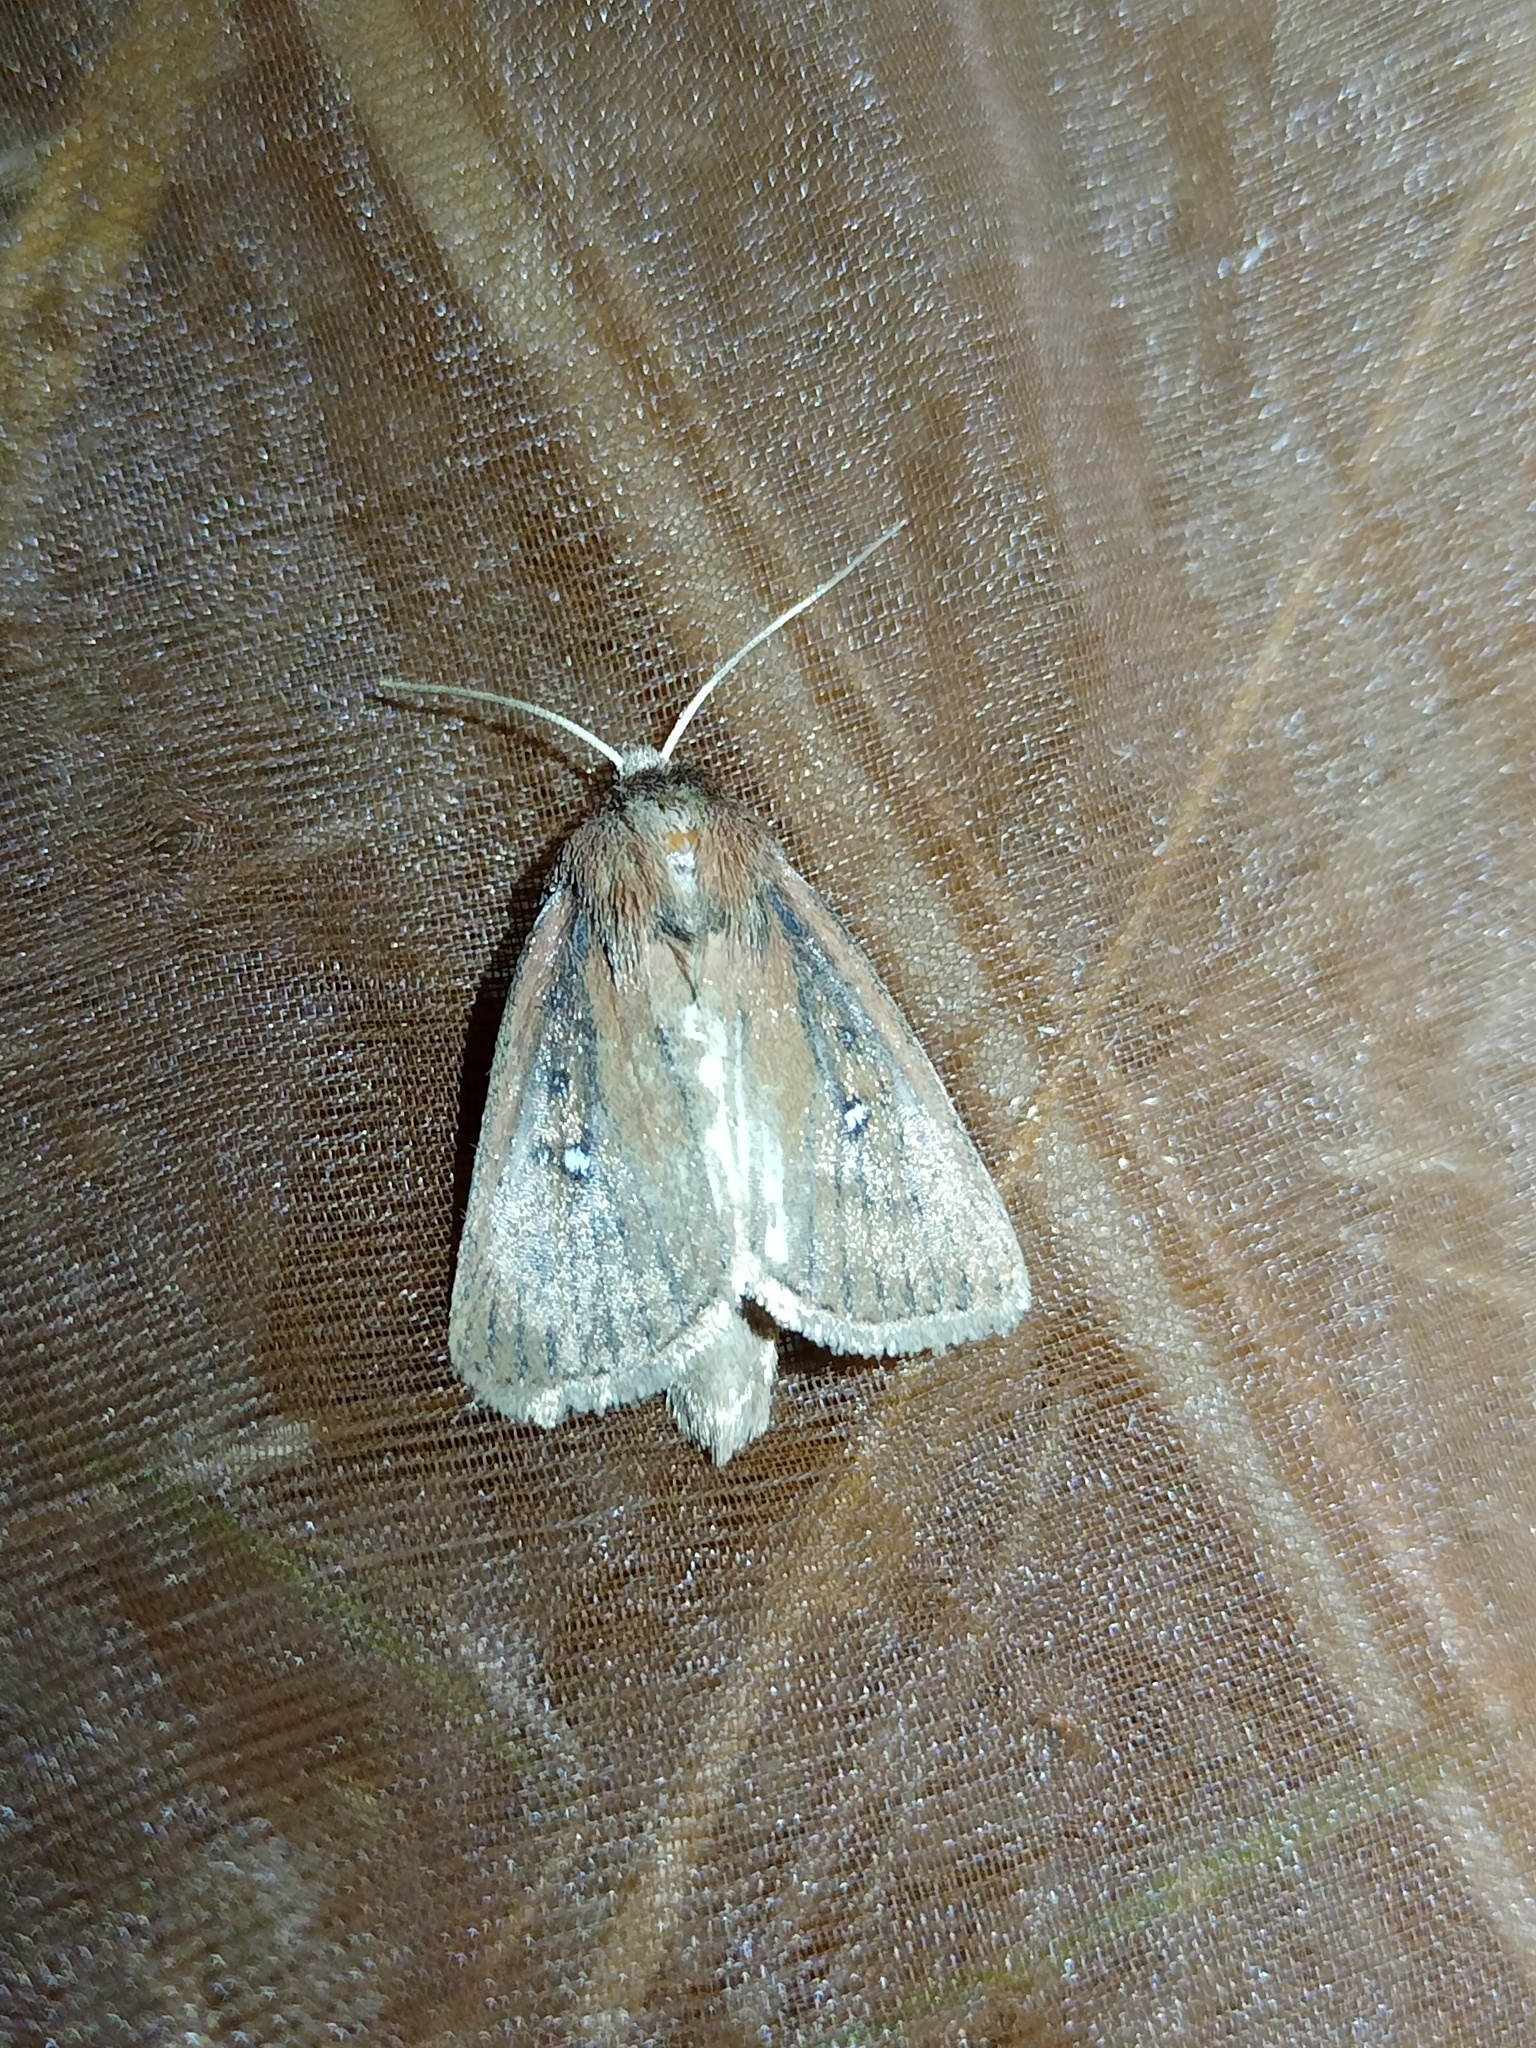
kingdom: Animalia
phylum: Arthropoda
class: Insecta
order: Lepidoptera
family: Noctuidae
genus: Lenisa
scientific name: Lenisa geminipuncta
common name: Twin-spotted wainscot
